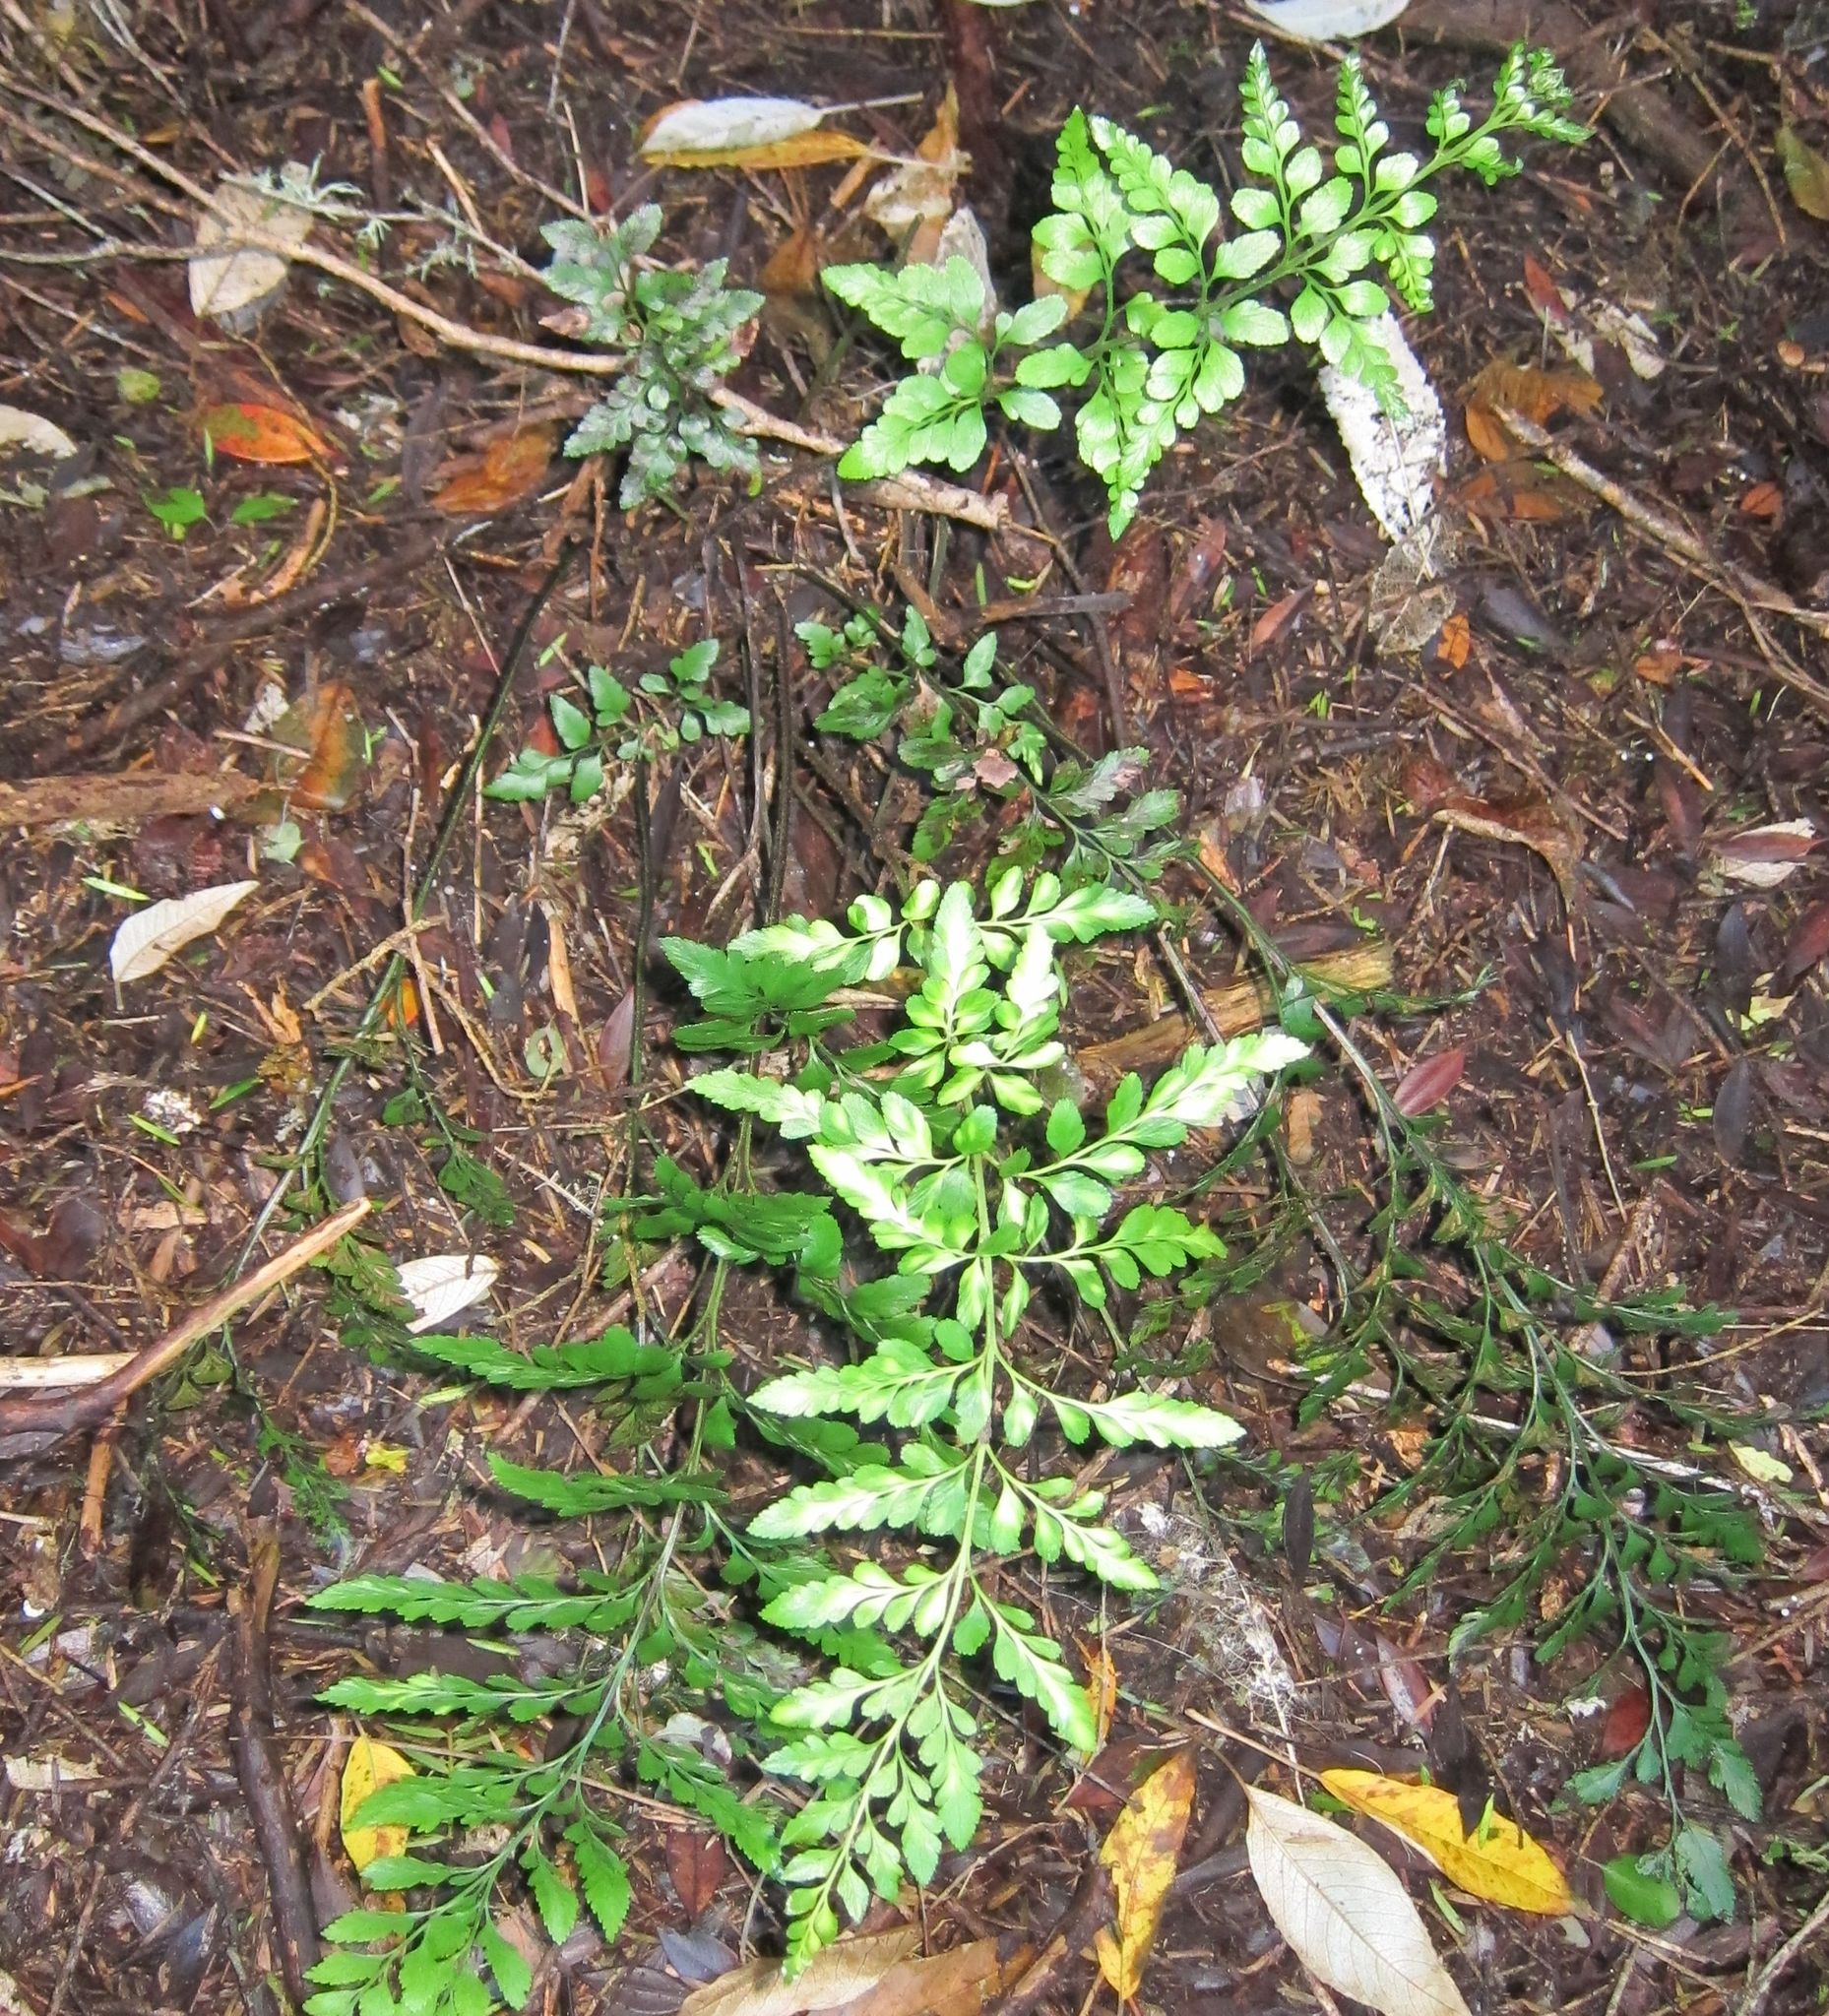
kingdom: Plantae
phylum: Tracheophyta
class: Polypodiopsida
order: Polypodiales
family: Aspleniaceae
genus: Asplenium
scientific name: Asplenium lyallii
